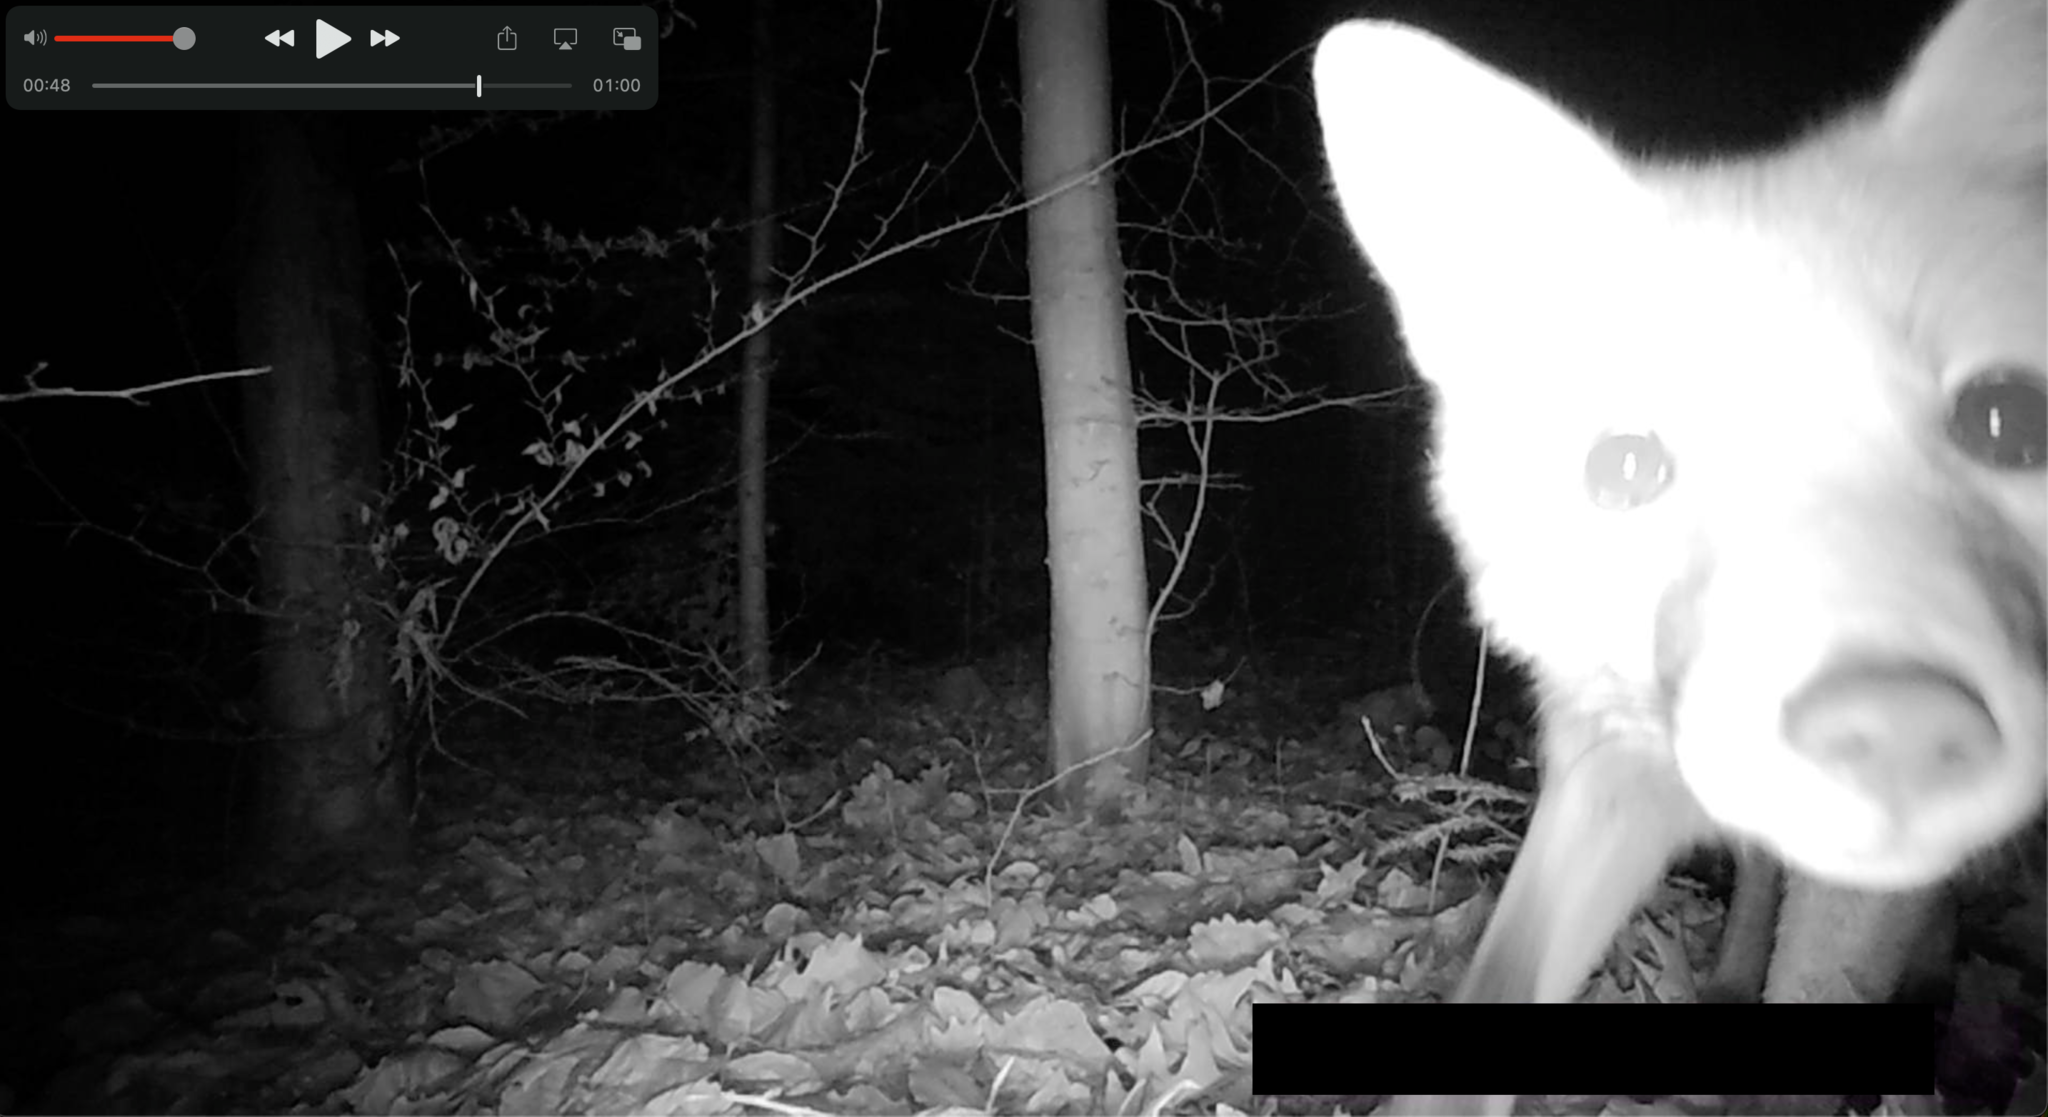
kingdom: Animalia
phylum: Chordata
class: Mammalia
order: Carnivora
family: Canidae
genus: Vulpes
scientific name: Vulpes vulpes
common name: Red fox
